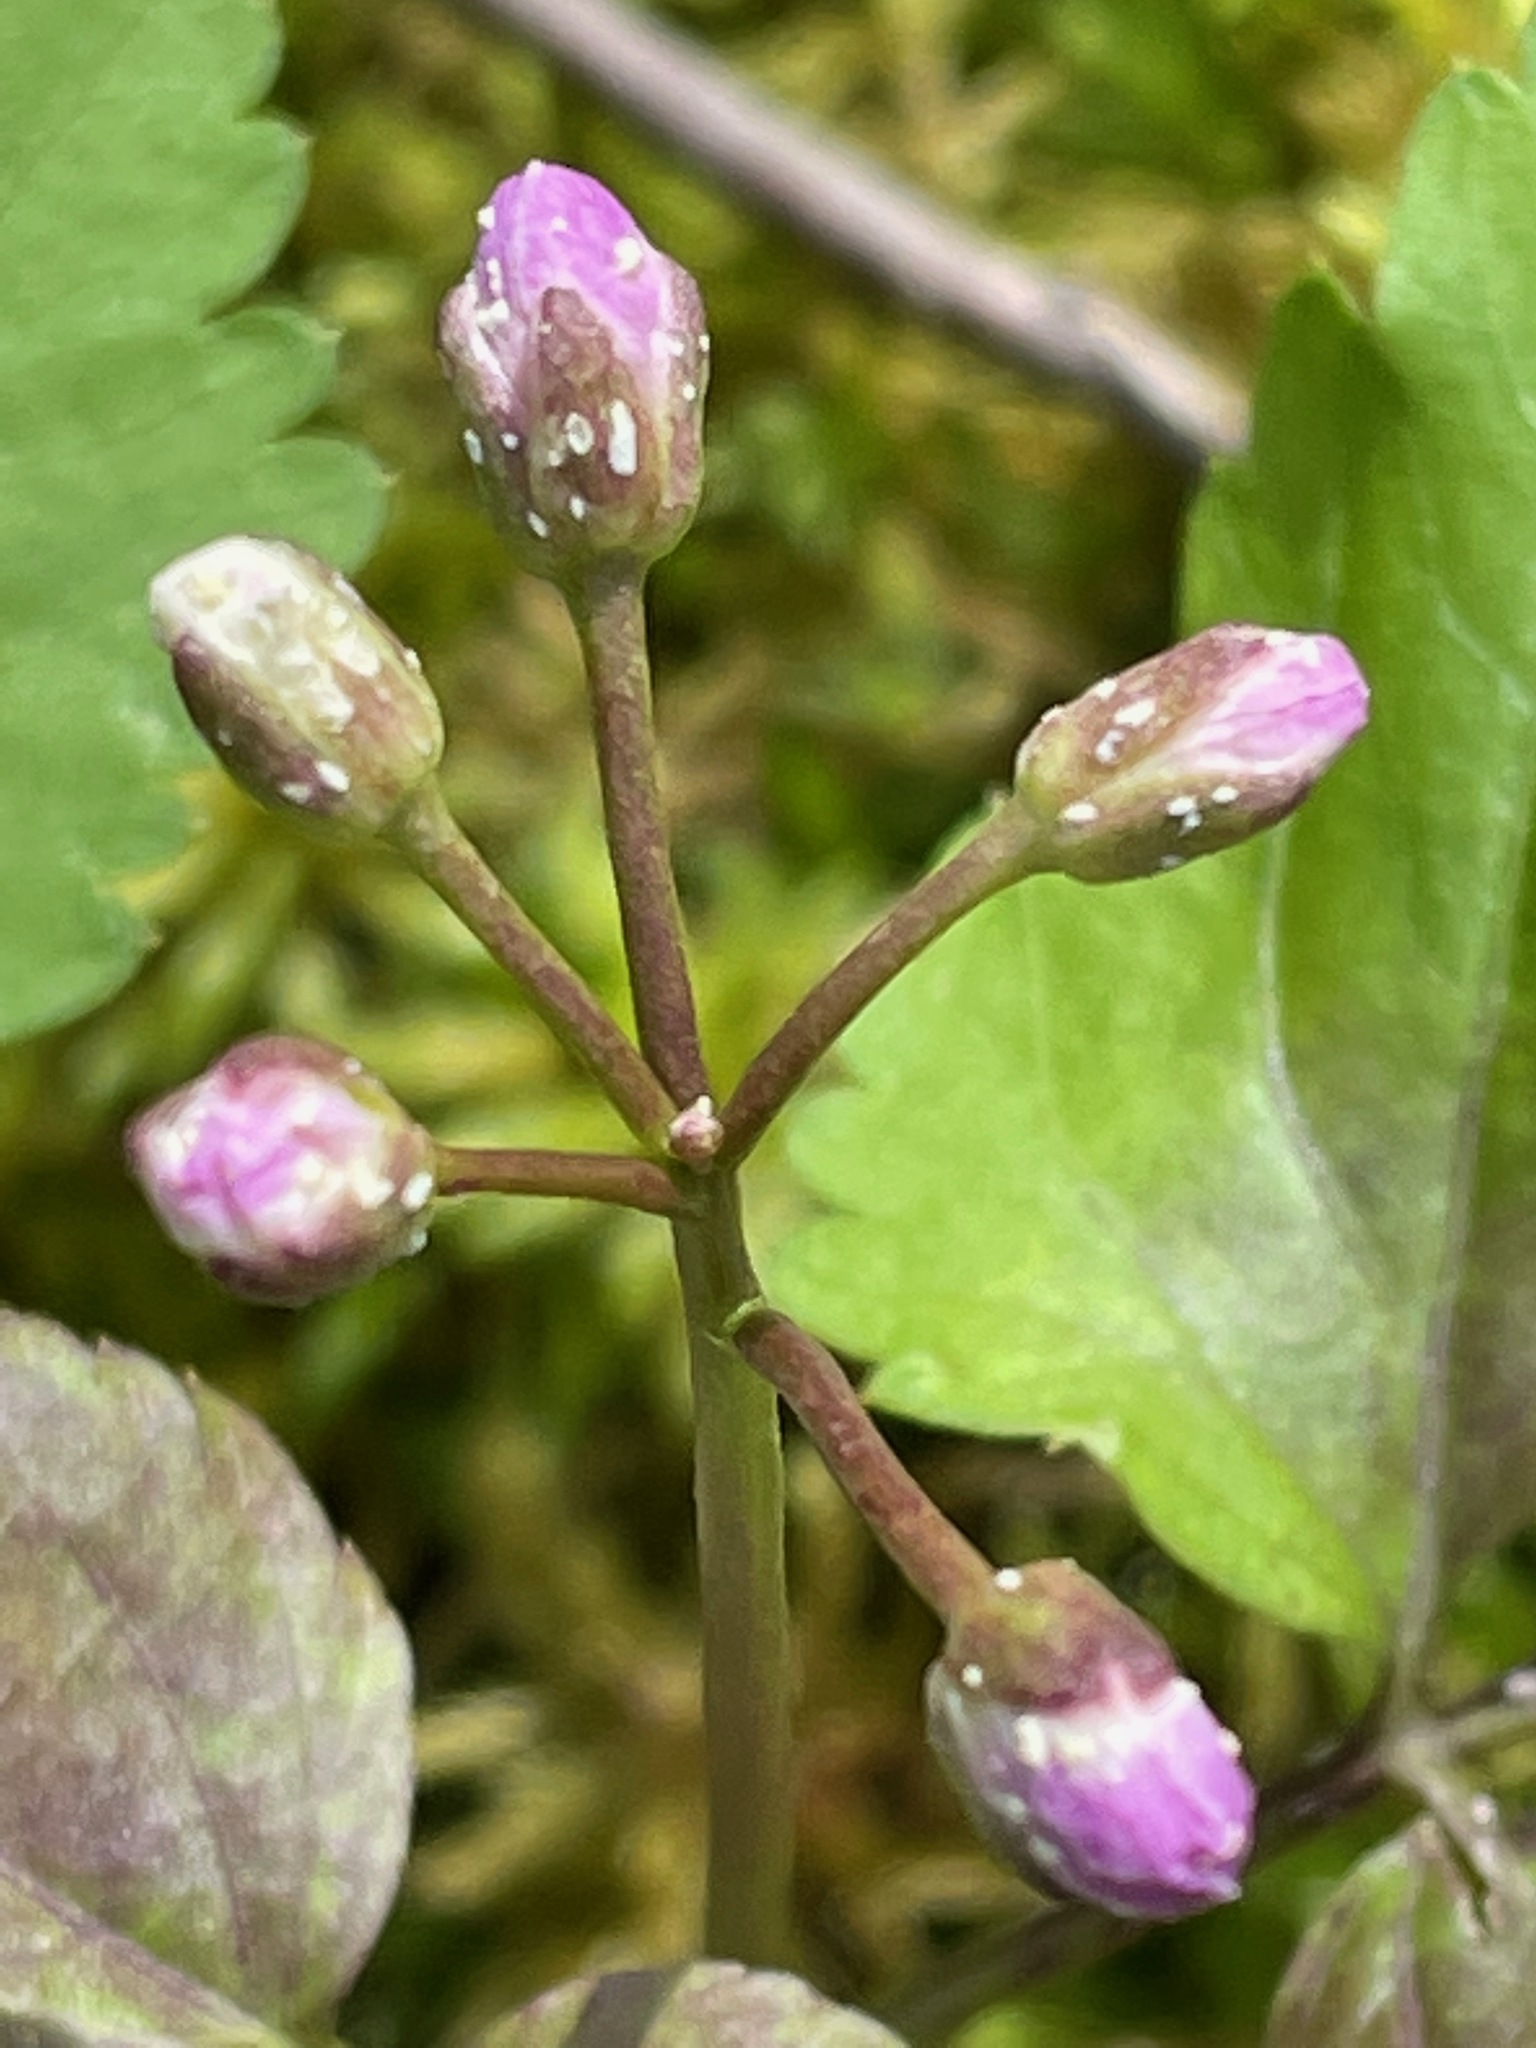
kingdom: Plantae
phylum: Tracheophyta
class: Magnoliopsida
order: Brassicales
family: Brassicaceae
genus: Cardamine
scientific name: Cardamine diphylla
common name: Broad-leaved toothwort
